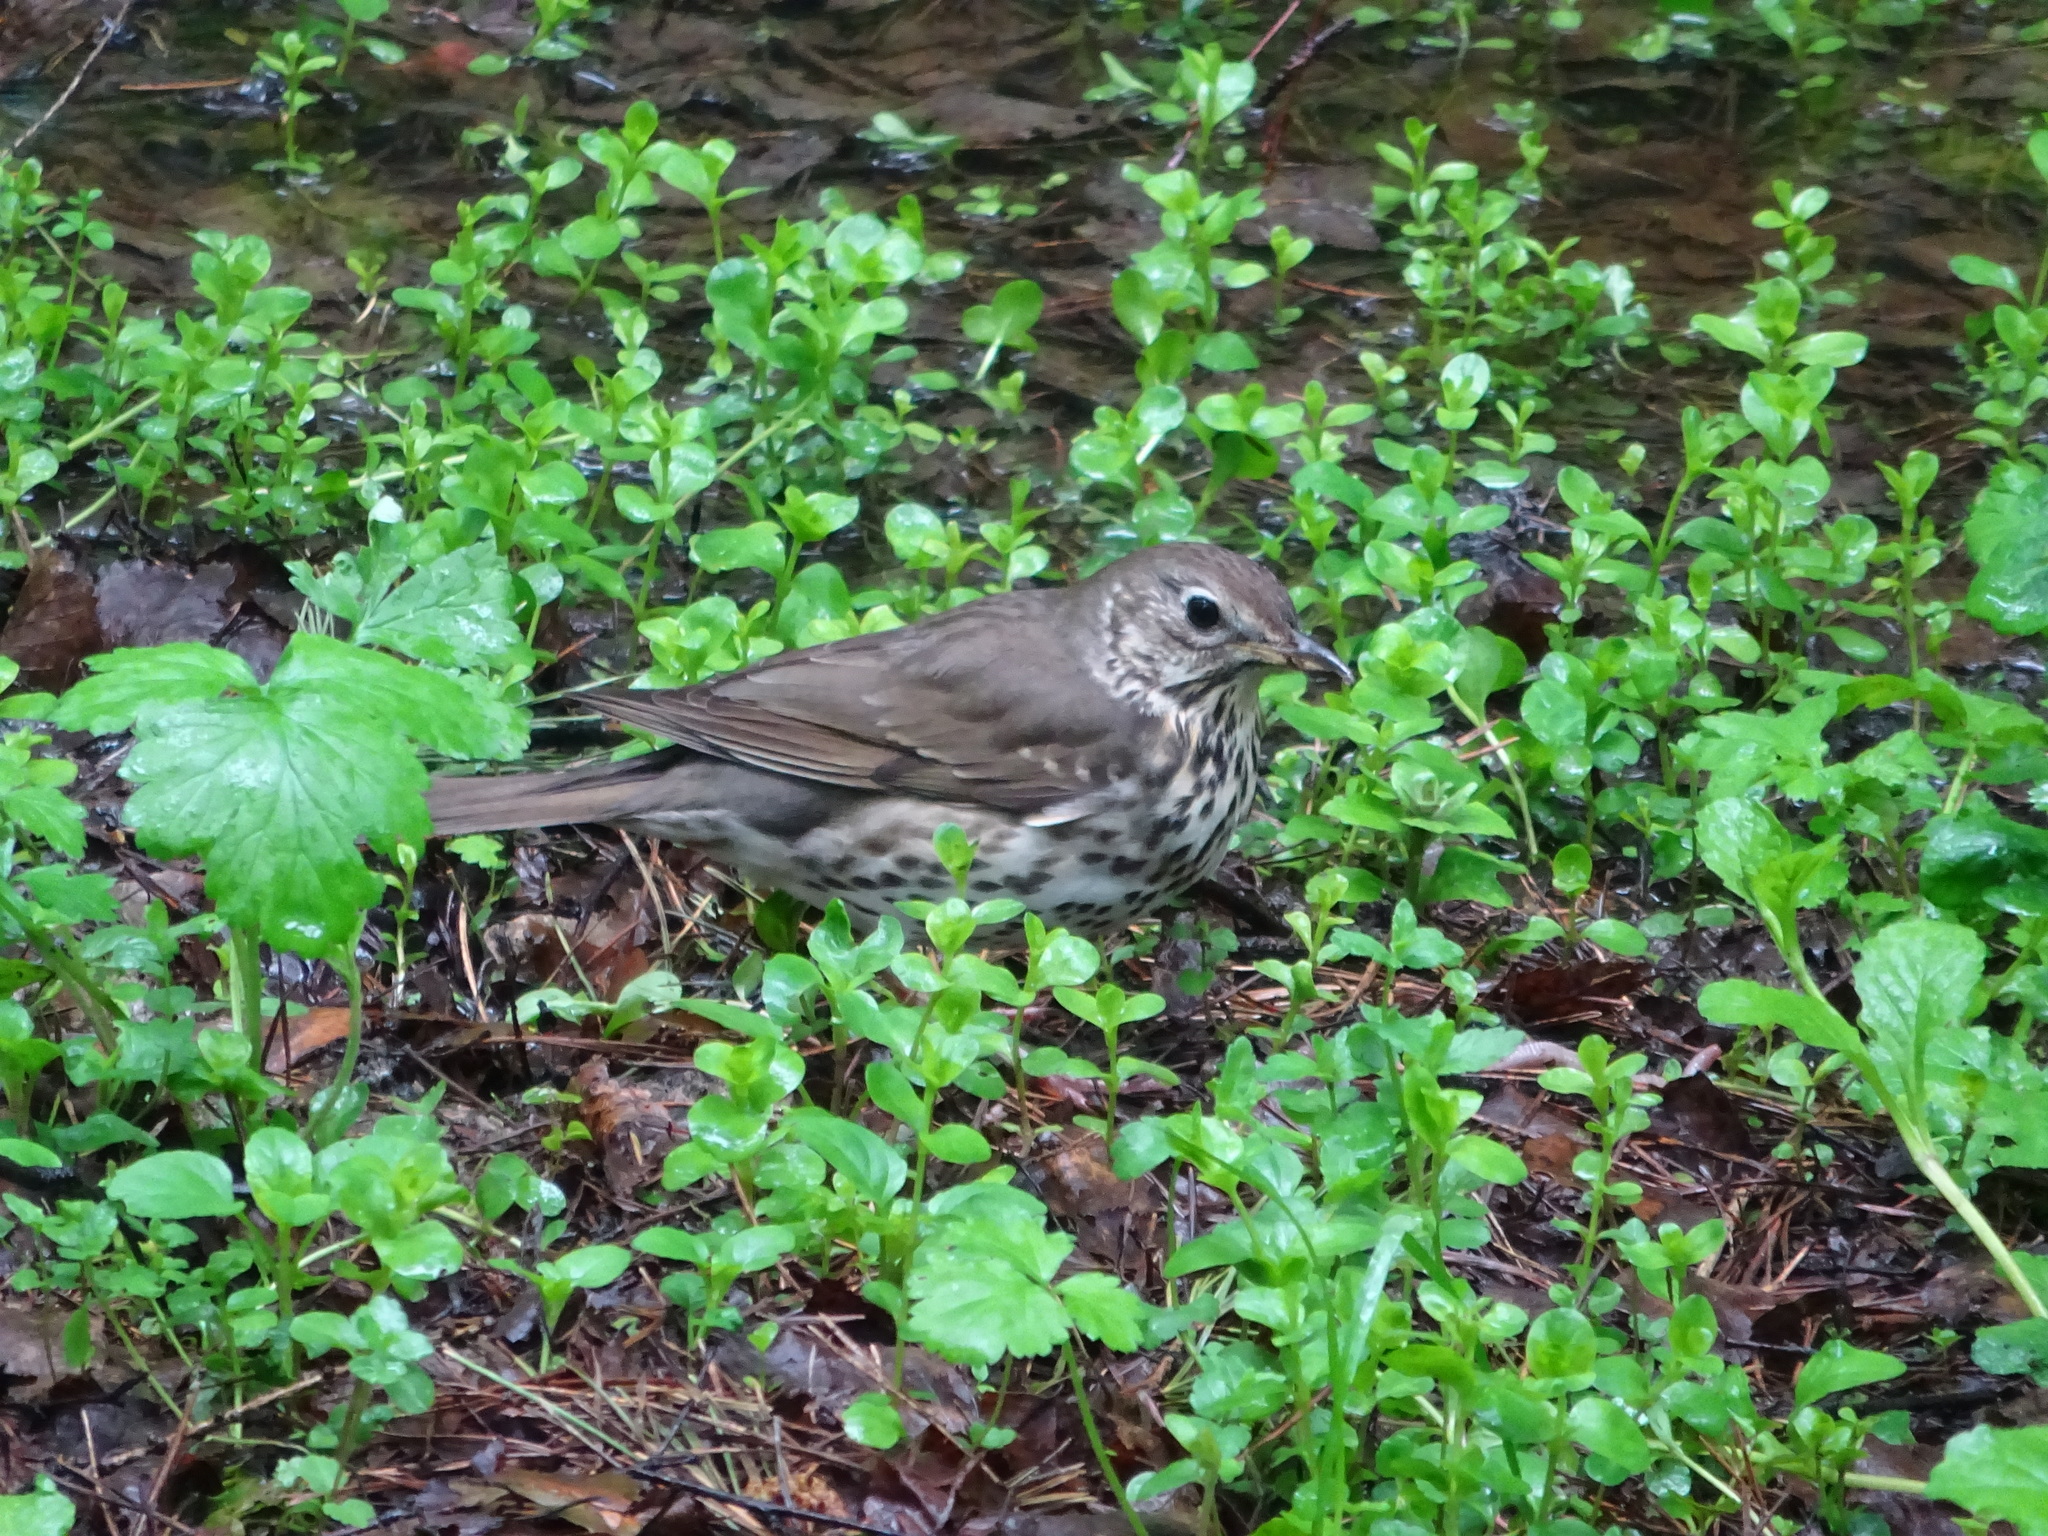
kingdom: Animalia
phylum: Chordata
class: Aves
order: Passeriformes
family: Turdidae
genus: Turdus
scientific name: Turdus philomelos
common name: Song thrush
